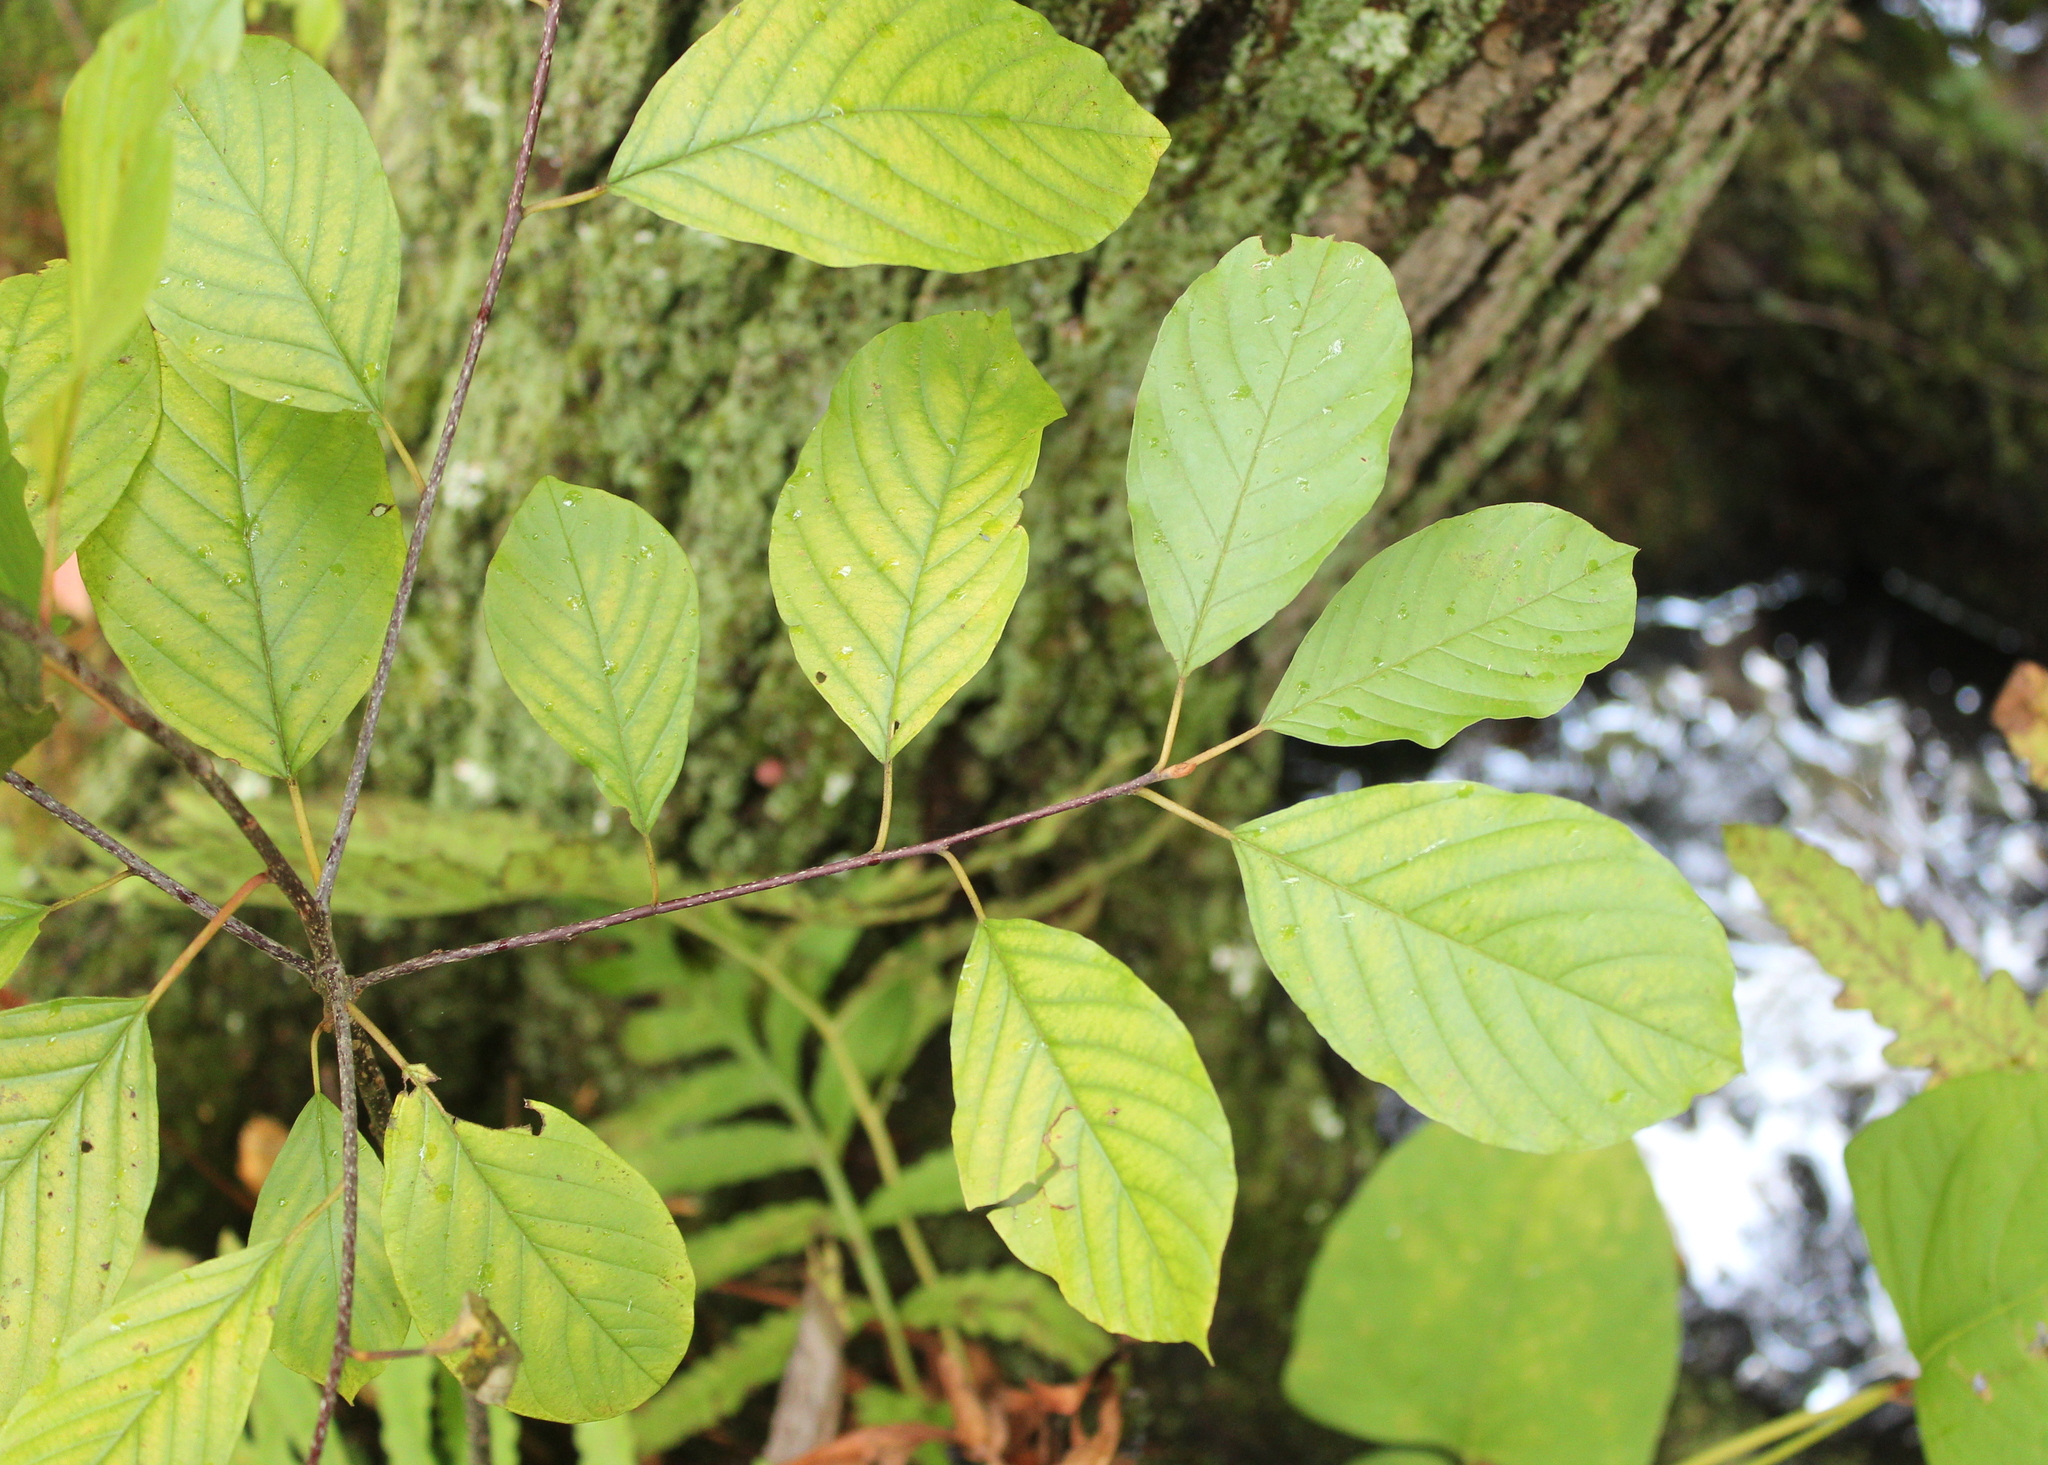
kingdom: Plantae
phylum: Tracheophyta
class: Magnoliopsida
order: Rosales
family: Rhamnaceae
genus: Frangula
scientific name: Frangula alnus
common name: Alder buckthorn
